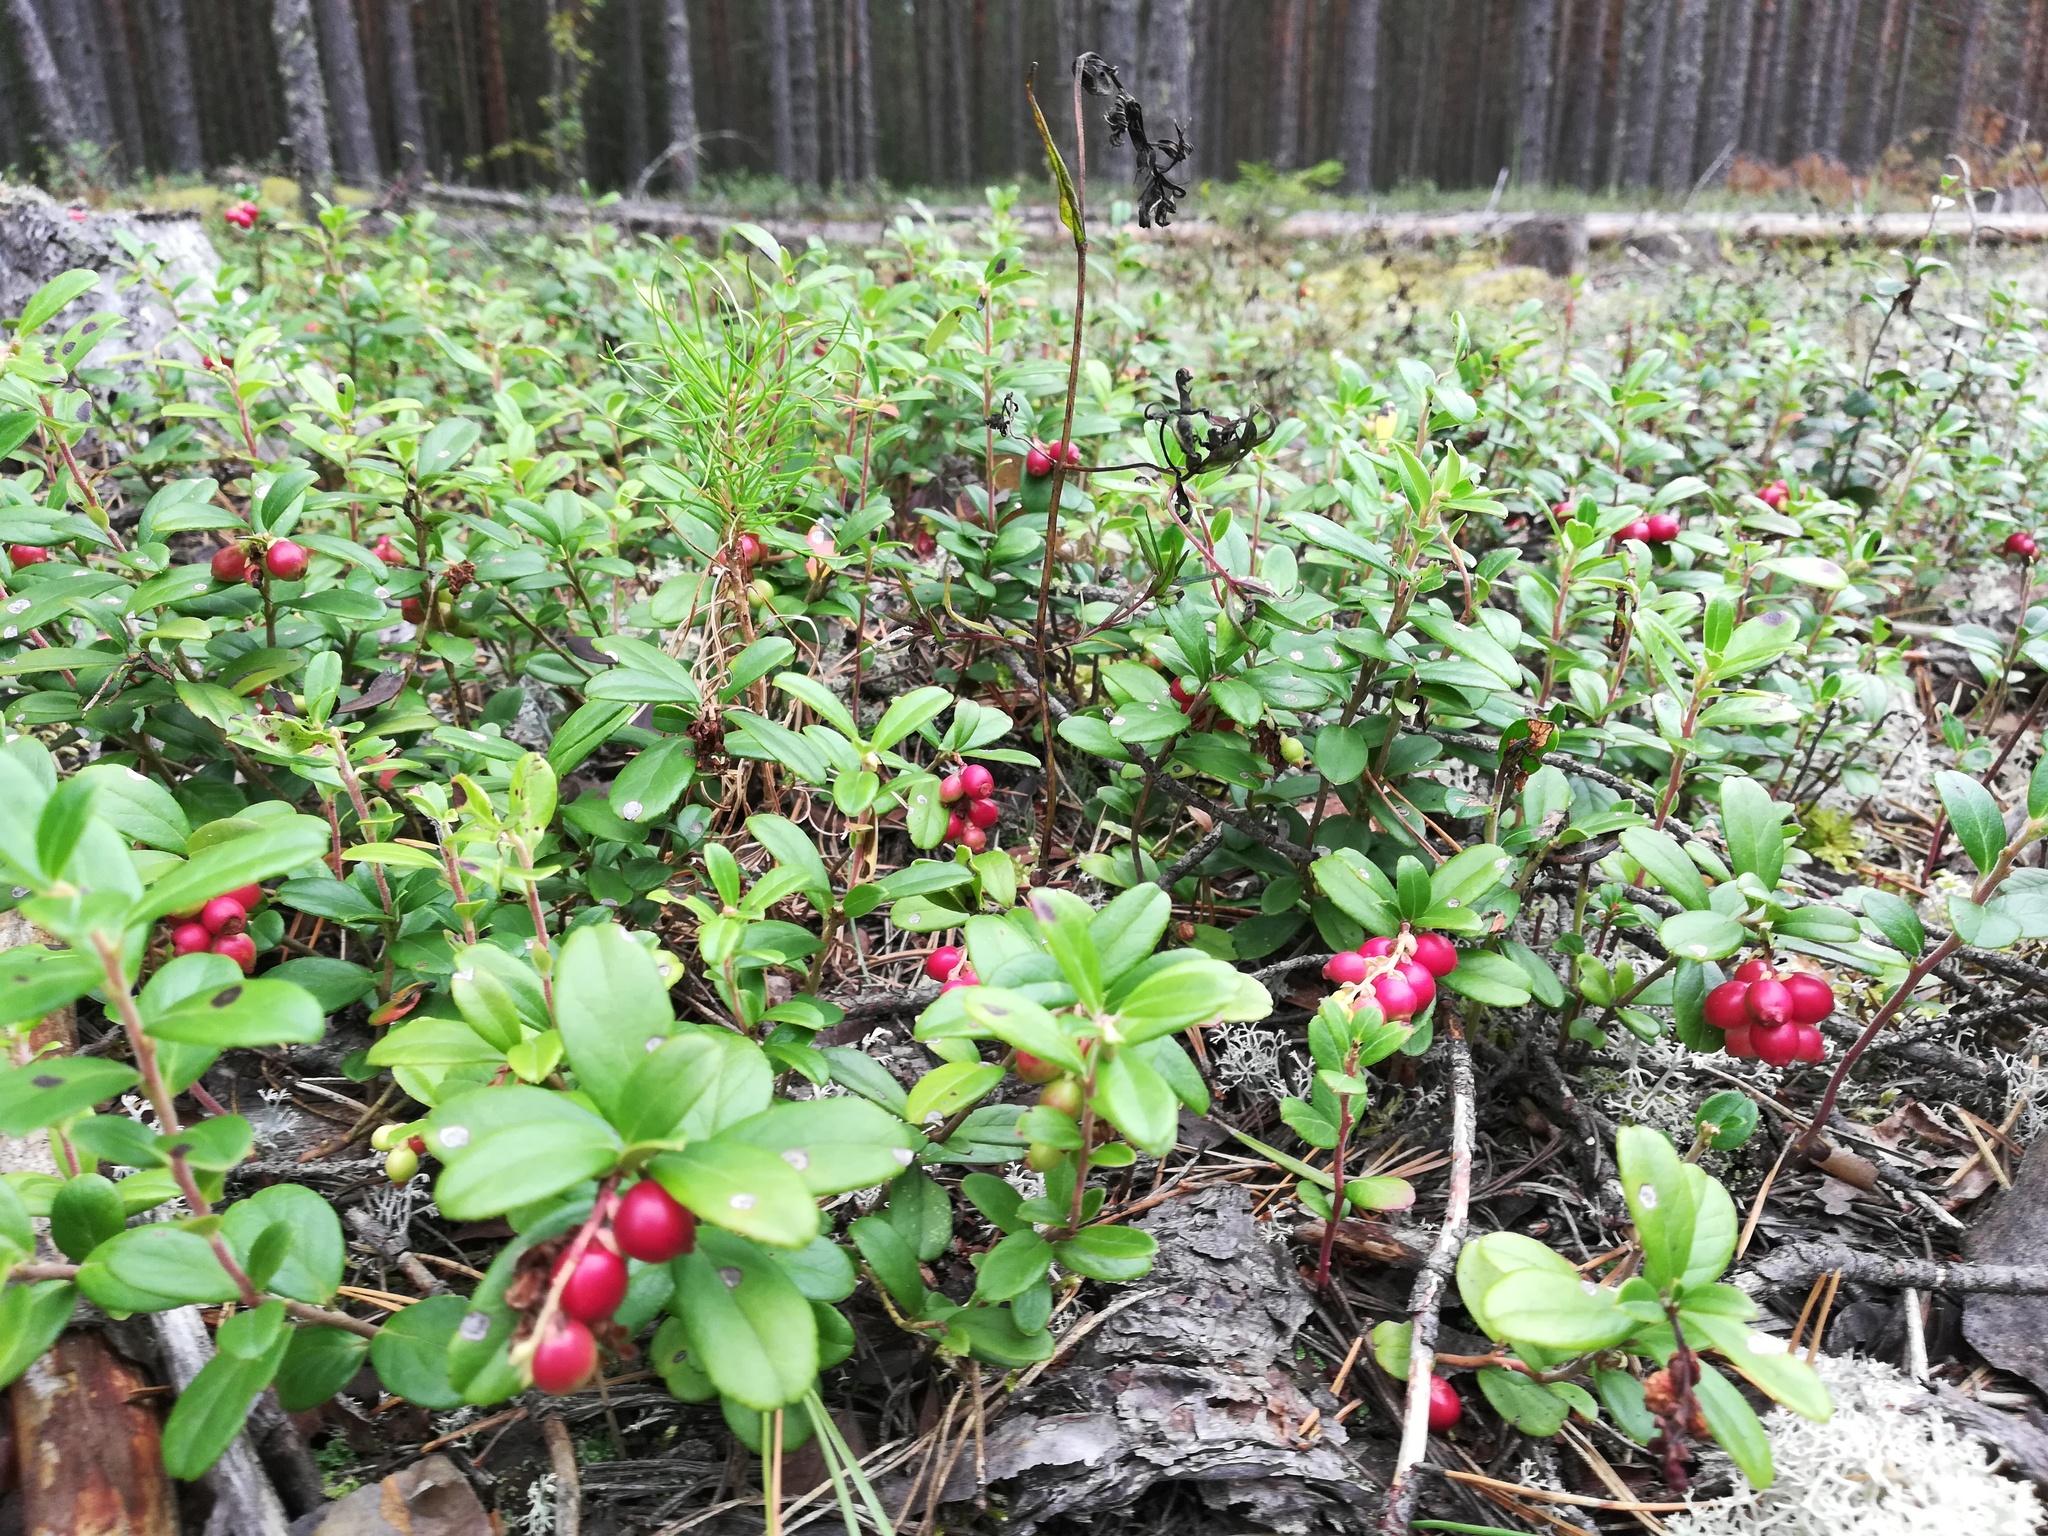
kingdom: Plantae
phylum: Tracheophyta
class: Magnoliopsida
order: Ericales
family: Ericaceae
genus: Vaccinium
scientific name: Vaccinium vitis-idaea
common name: Cowberry
